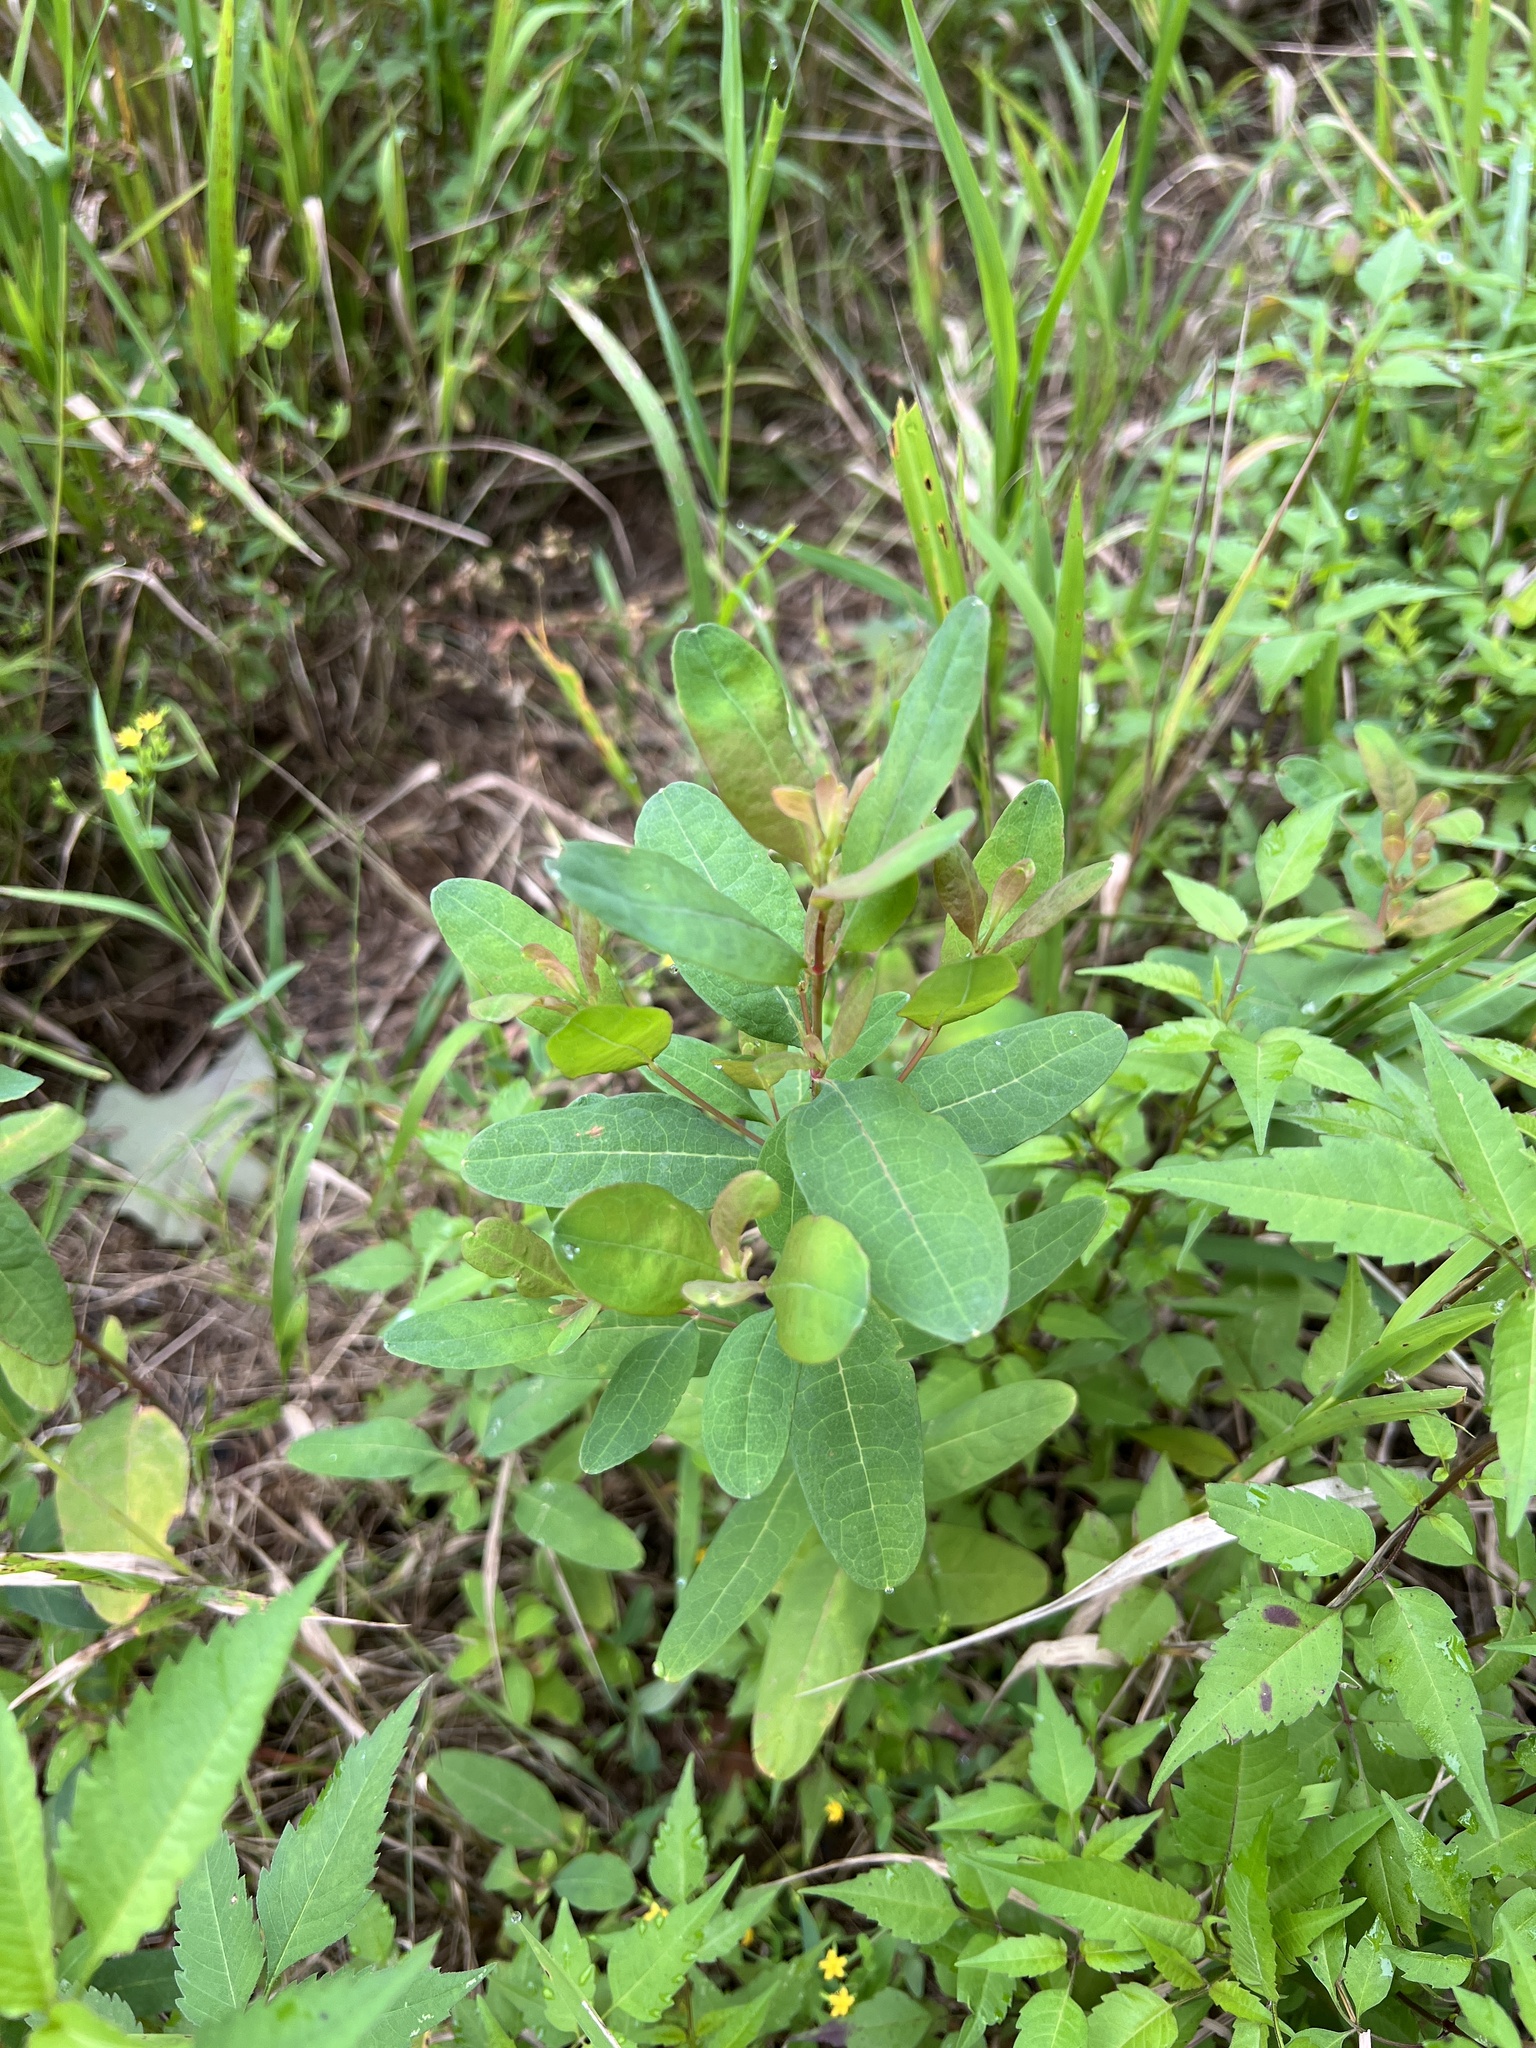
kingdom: Plantae
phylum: Tracheophyta
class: Magnoliopsida
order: Malpighiales
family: Hypericaceae
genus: Triadenum
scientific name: Triadenum walteri
